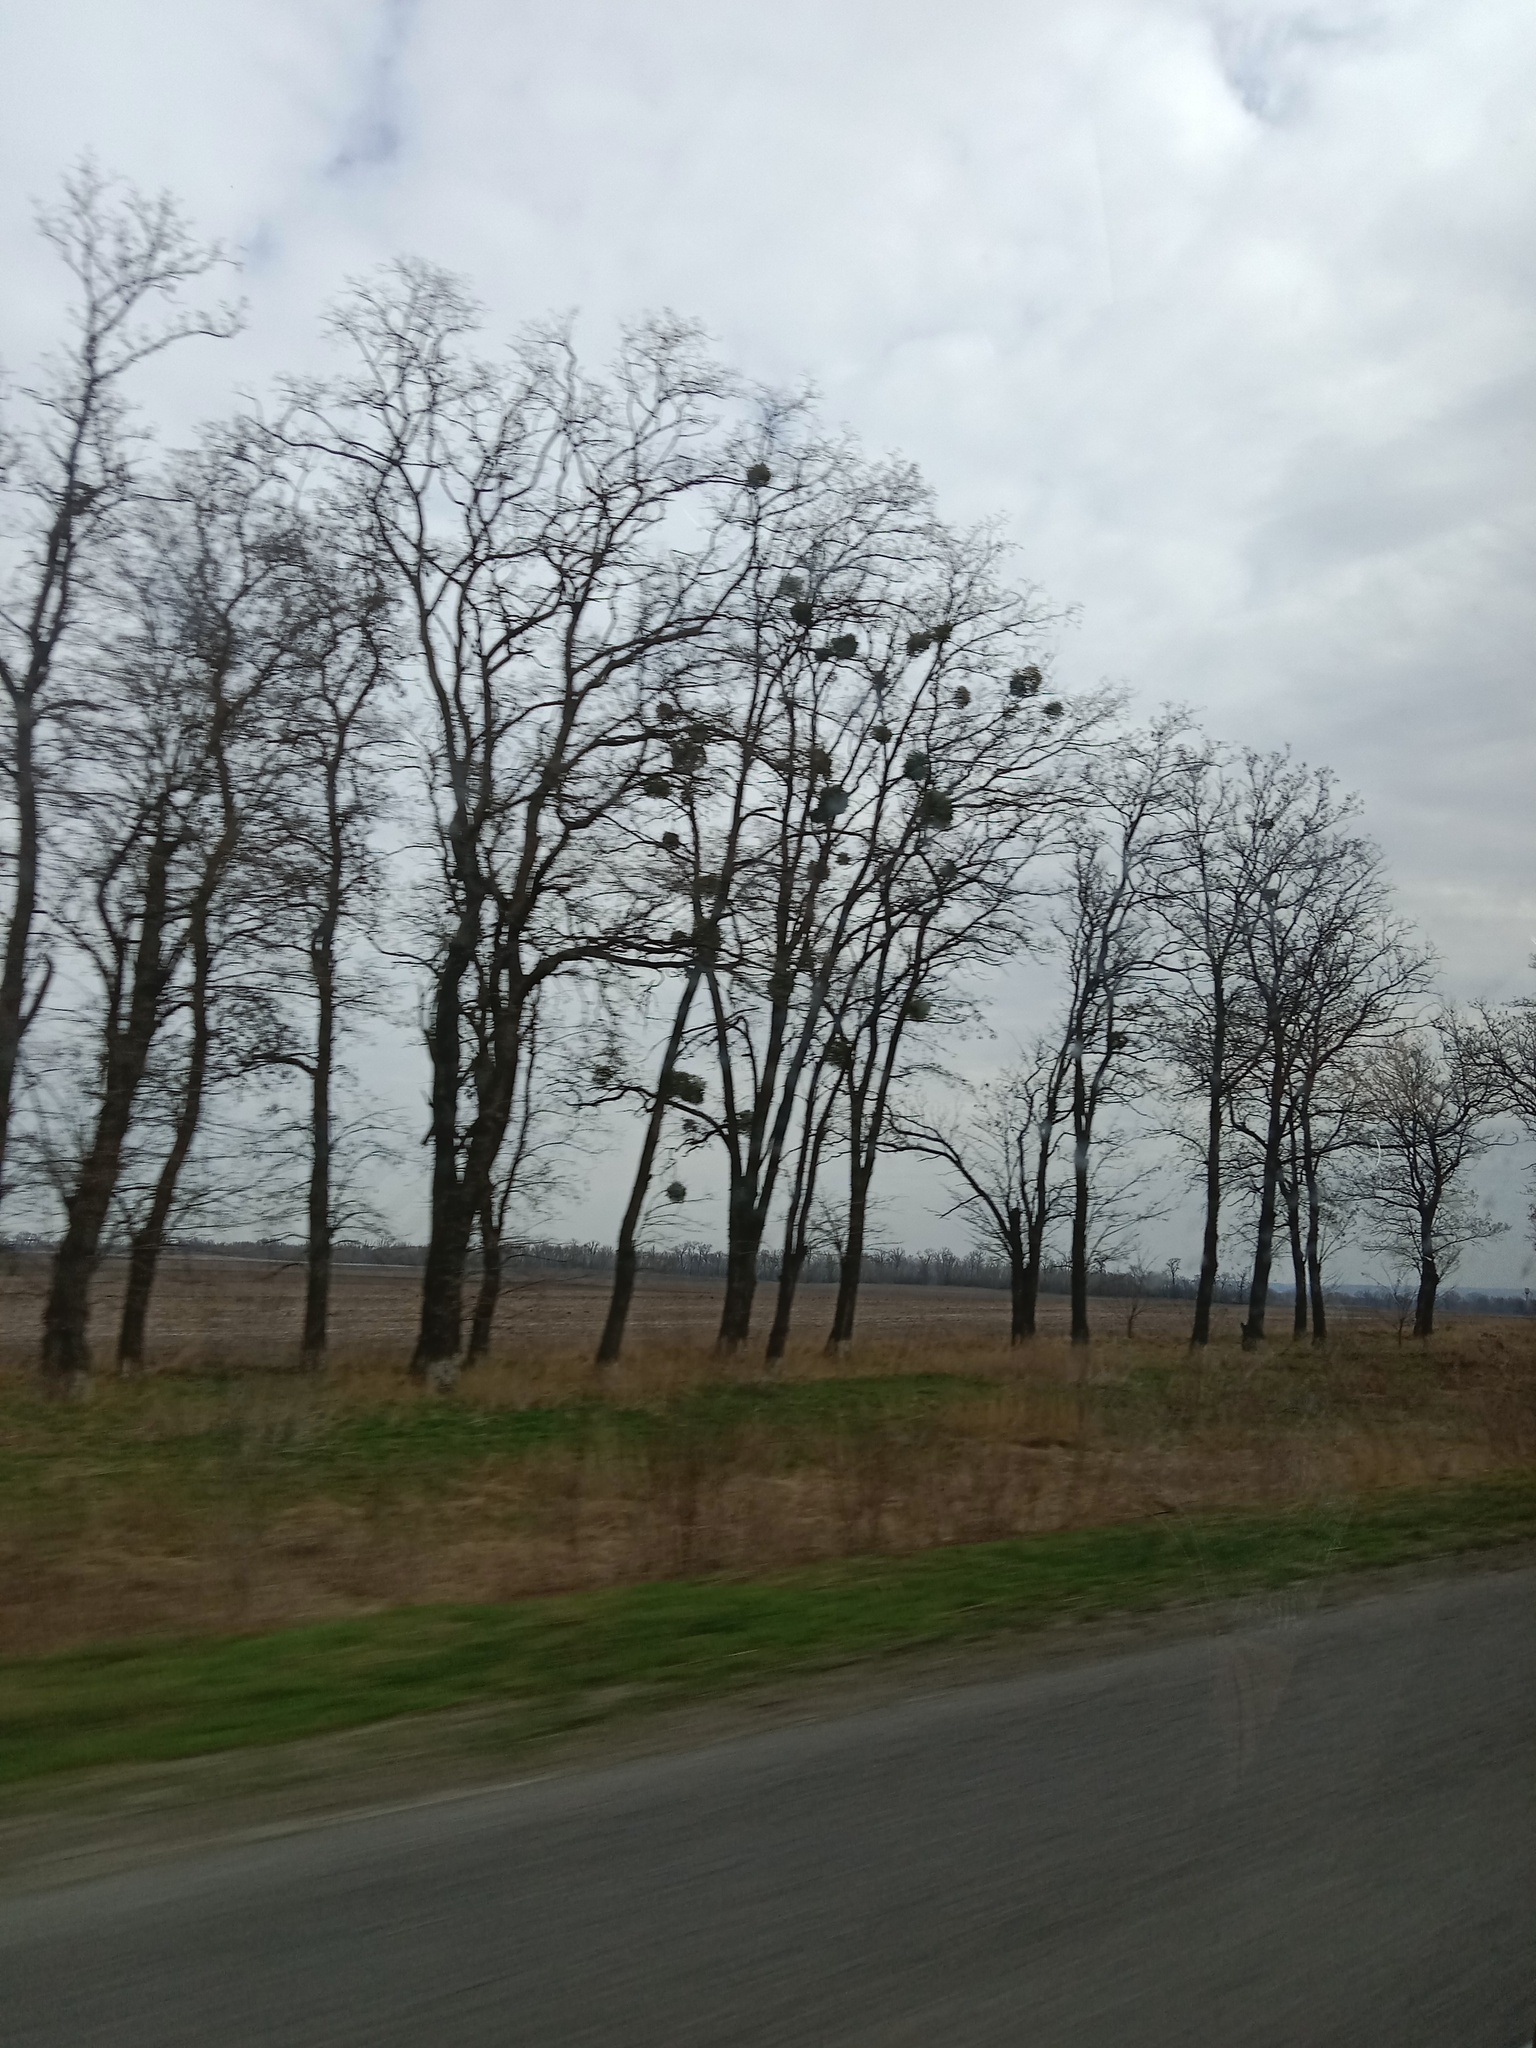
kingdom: Plantae
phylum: Tracheophyta
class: Magnoliopsida
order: Santalales
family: Viscaceae
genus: Viscum
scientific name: Viscum album
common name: Mistletoe
